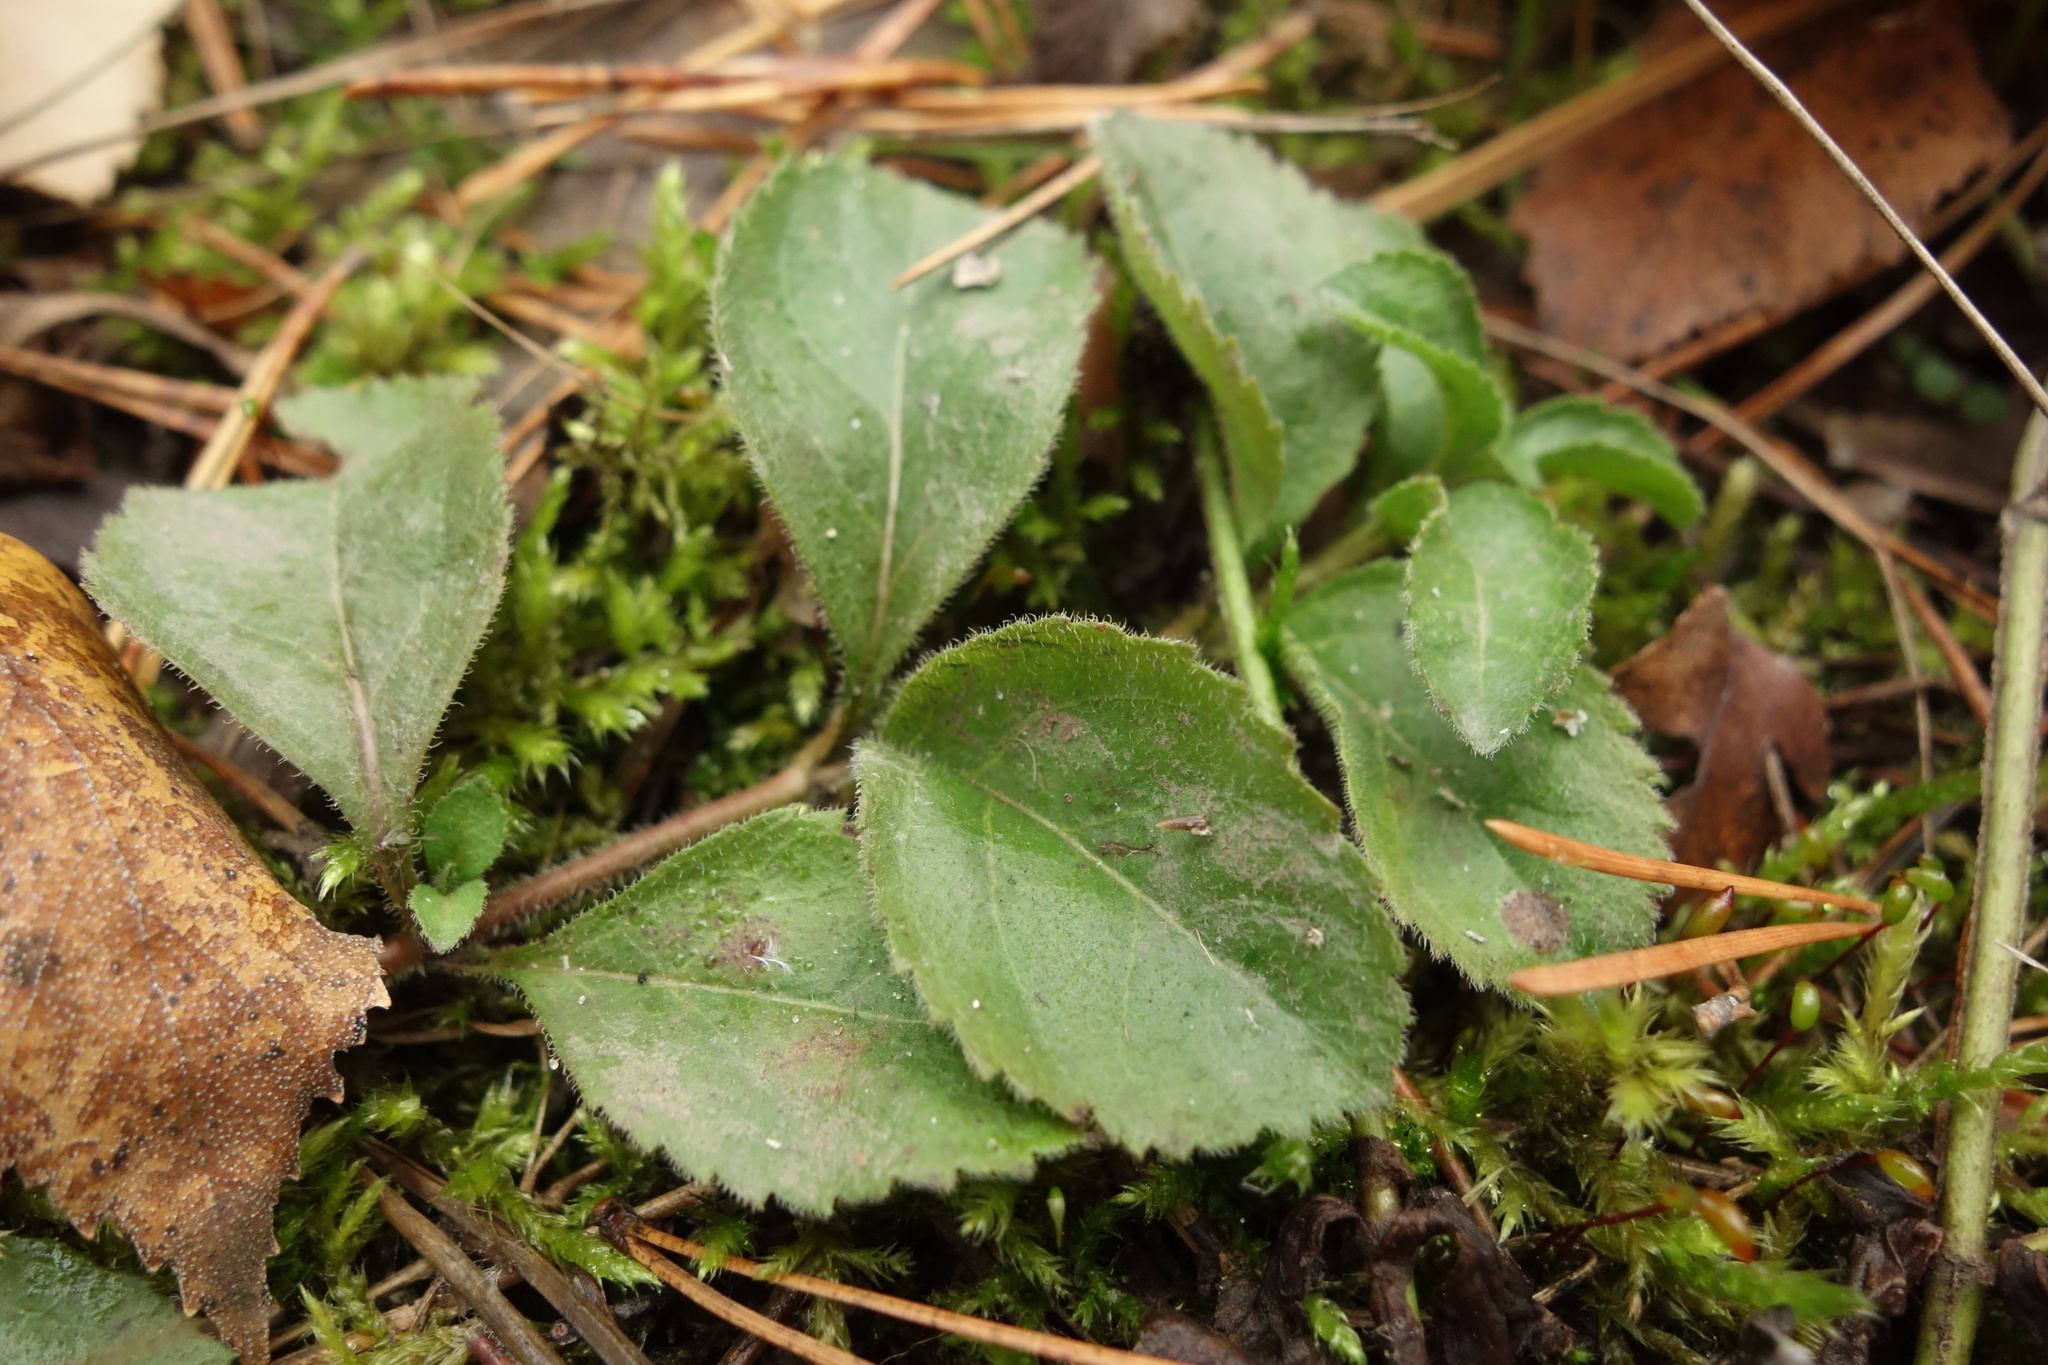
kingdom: Plantae
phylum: Tracheophyta
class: Magnoliopsida
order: Lamiales
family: Plantaginaceae
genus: Veronica
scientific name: Veronica officinalis
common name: Common speedwell
